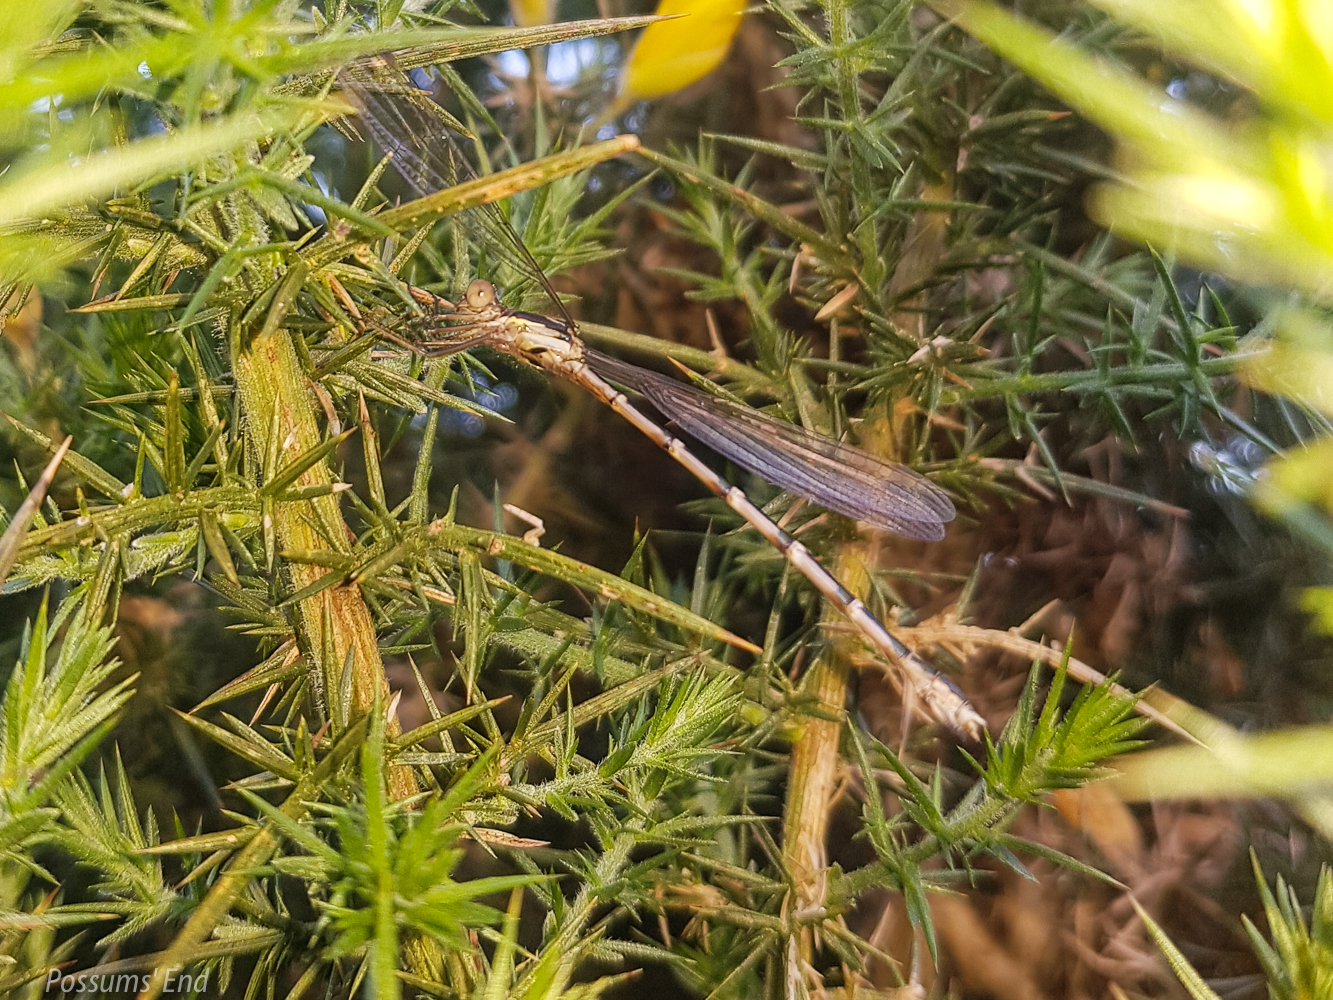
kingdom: Animalia
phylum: Arthropoda
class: Insecta
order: Odonata
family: Lestidae
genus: Austrolestes
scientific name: Austrolestes colensonis
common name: Blue damselfly
